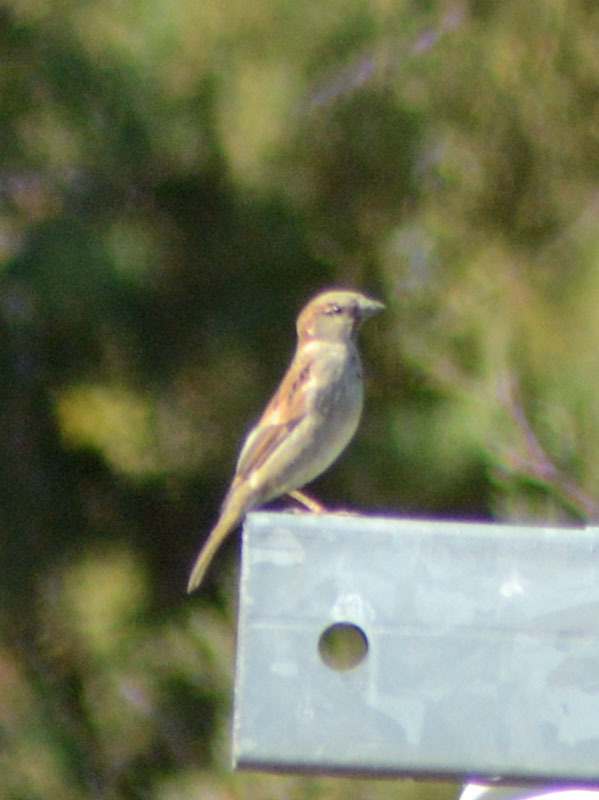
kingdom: Animalia
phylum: Chordata
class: Aves
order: Passeriformes
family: Passeridae
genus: Passer
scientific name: Passer domesticus
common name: House sparrow
